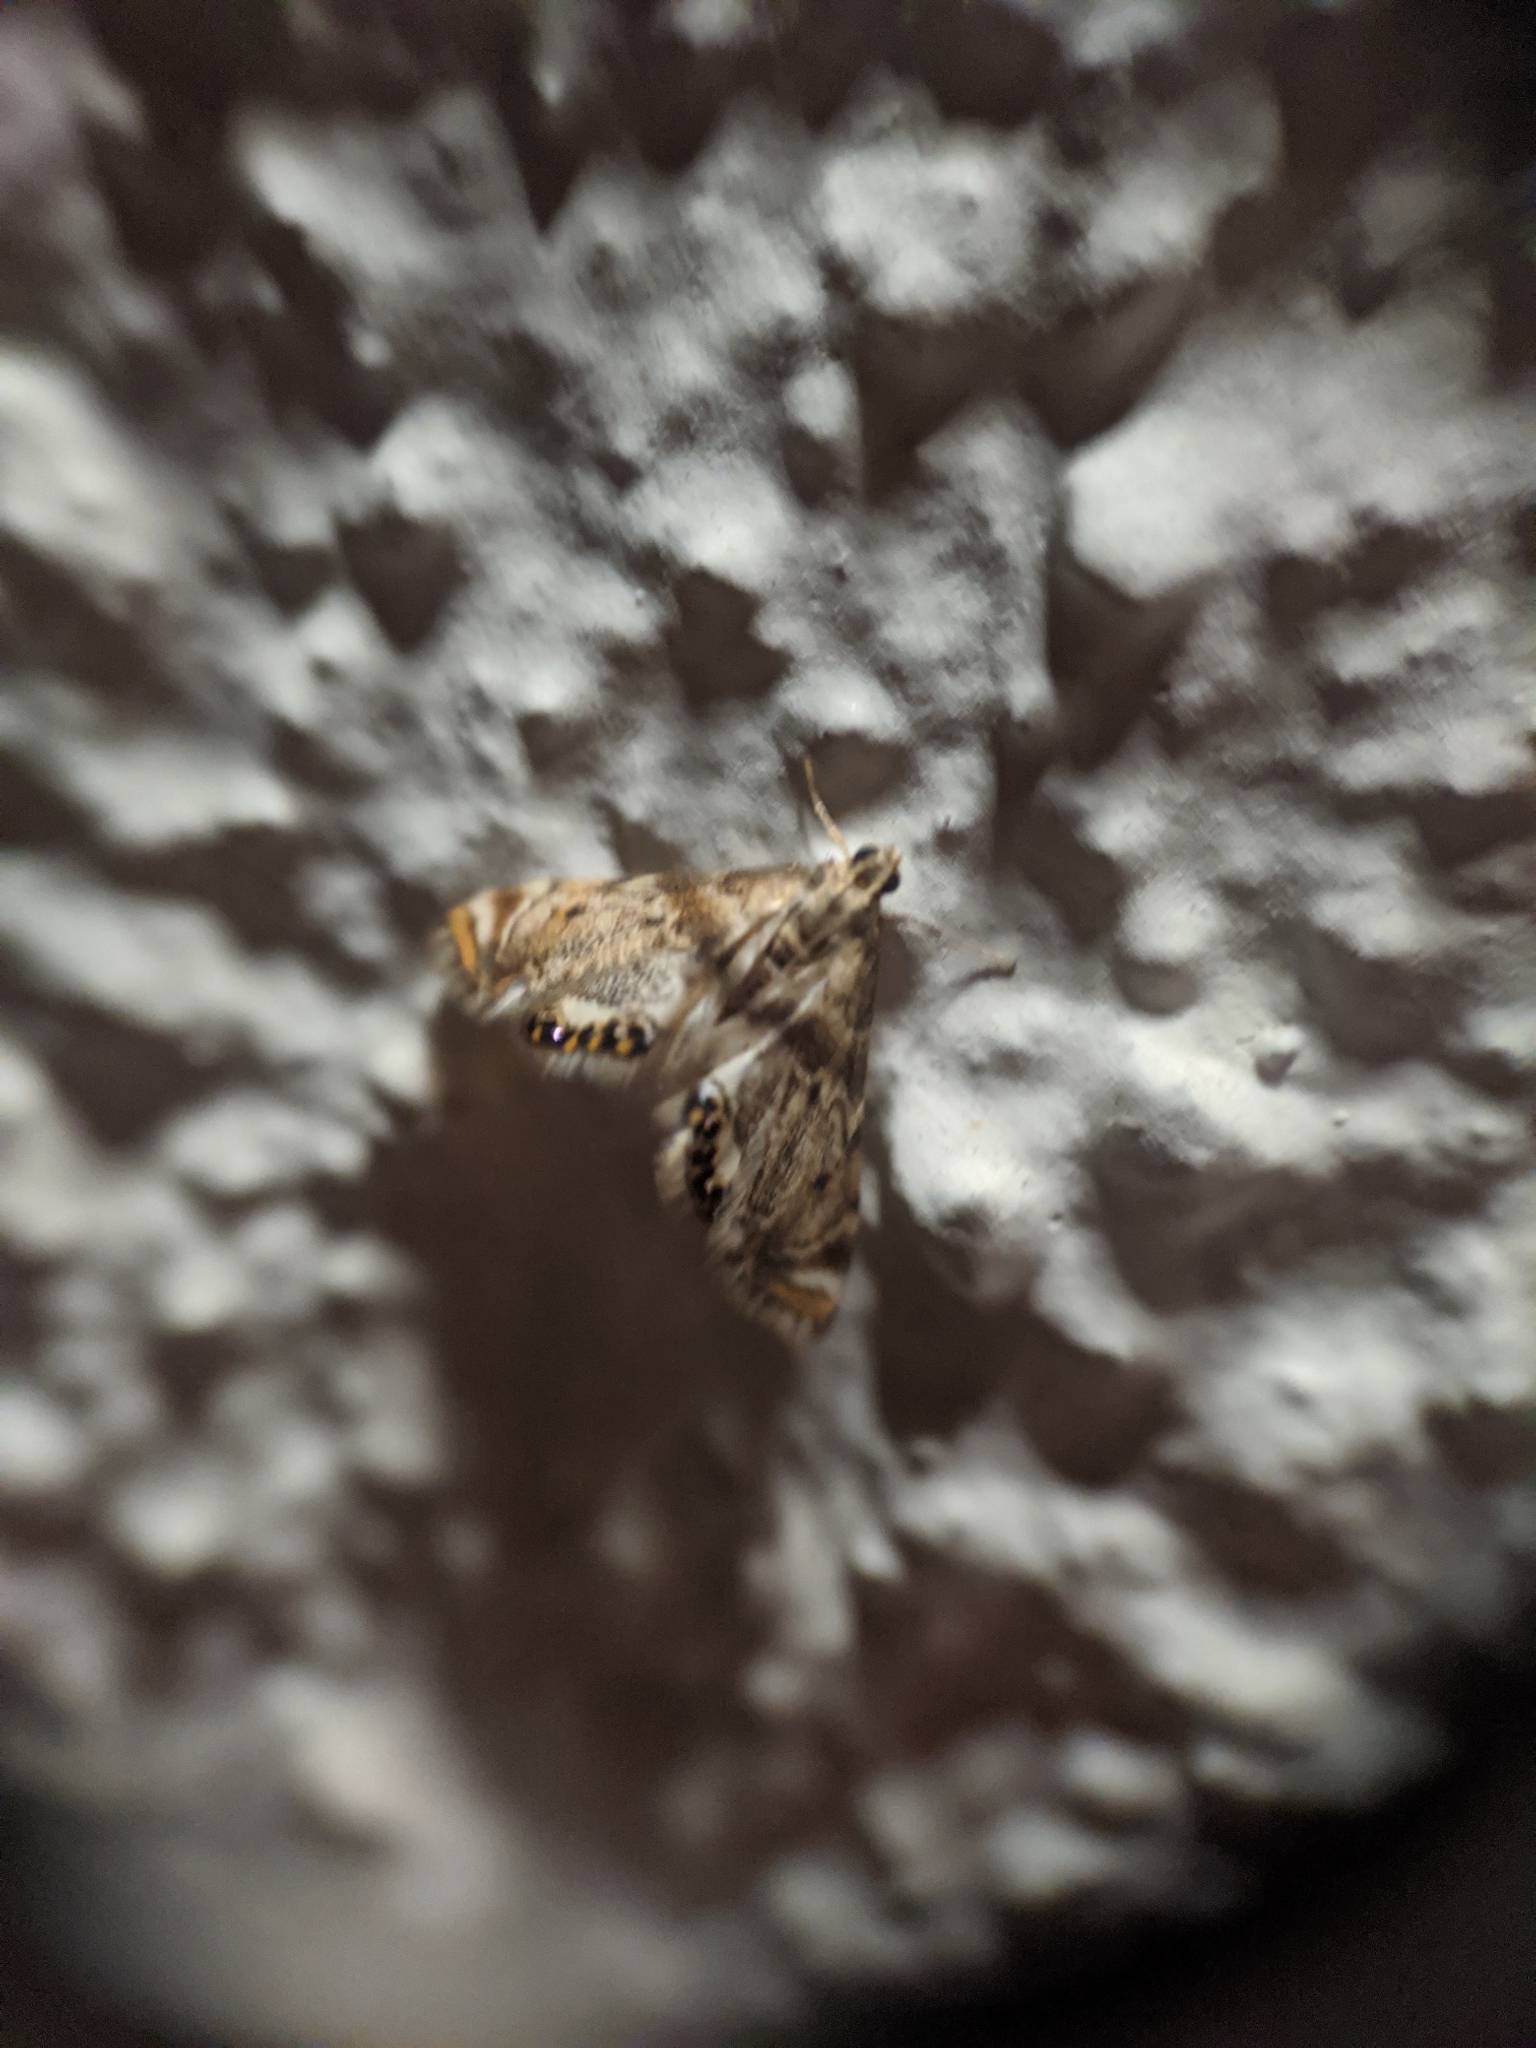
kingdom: Animalia
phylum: Arthropoda
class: Insecta
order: Lepidoptera
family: Crambidae
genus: Petrophila
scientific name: Petrophila fulicalis
